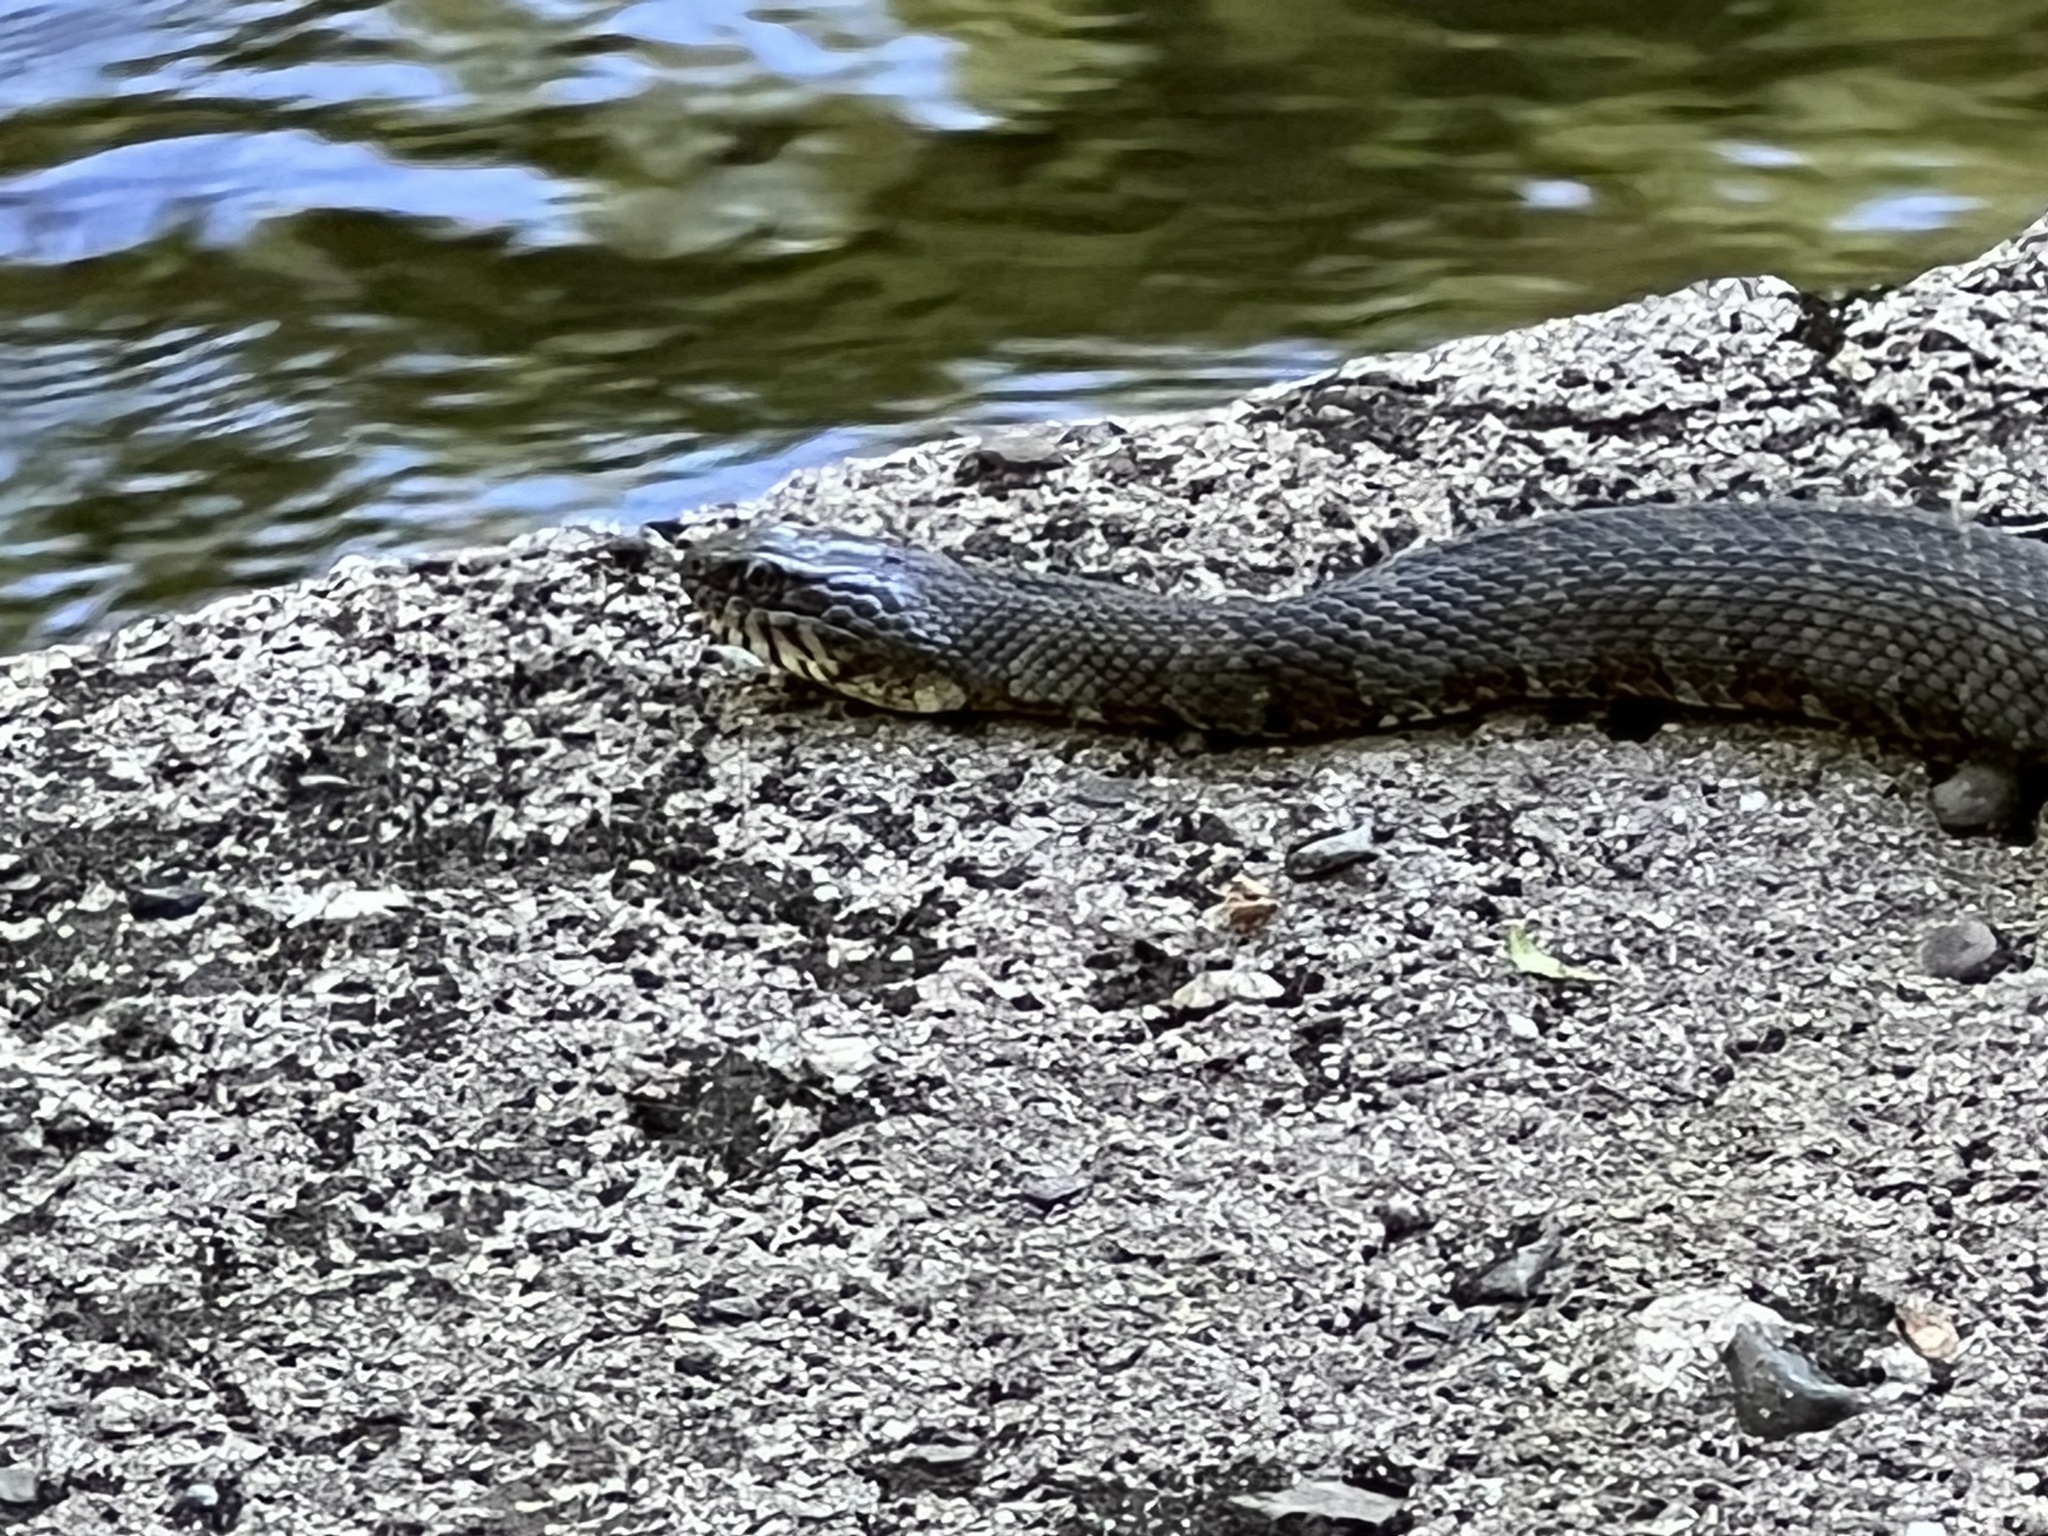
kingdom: Animalia
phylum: Chordata
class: Squamata
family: Colubridae
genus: Nerodia
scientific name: Nerodia sipedon
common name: Northern water snake
